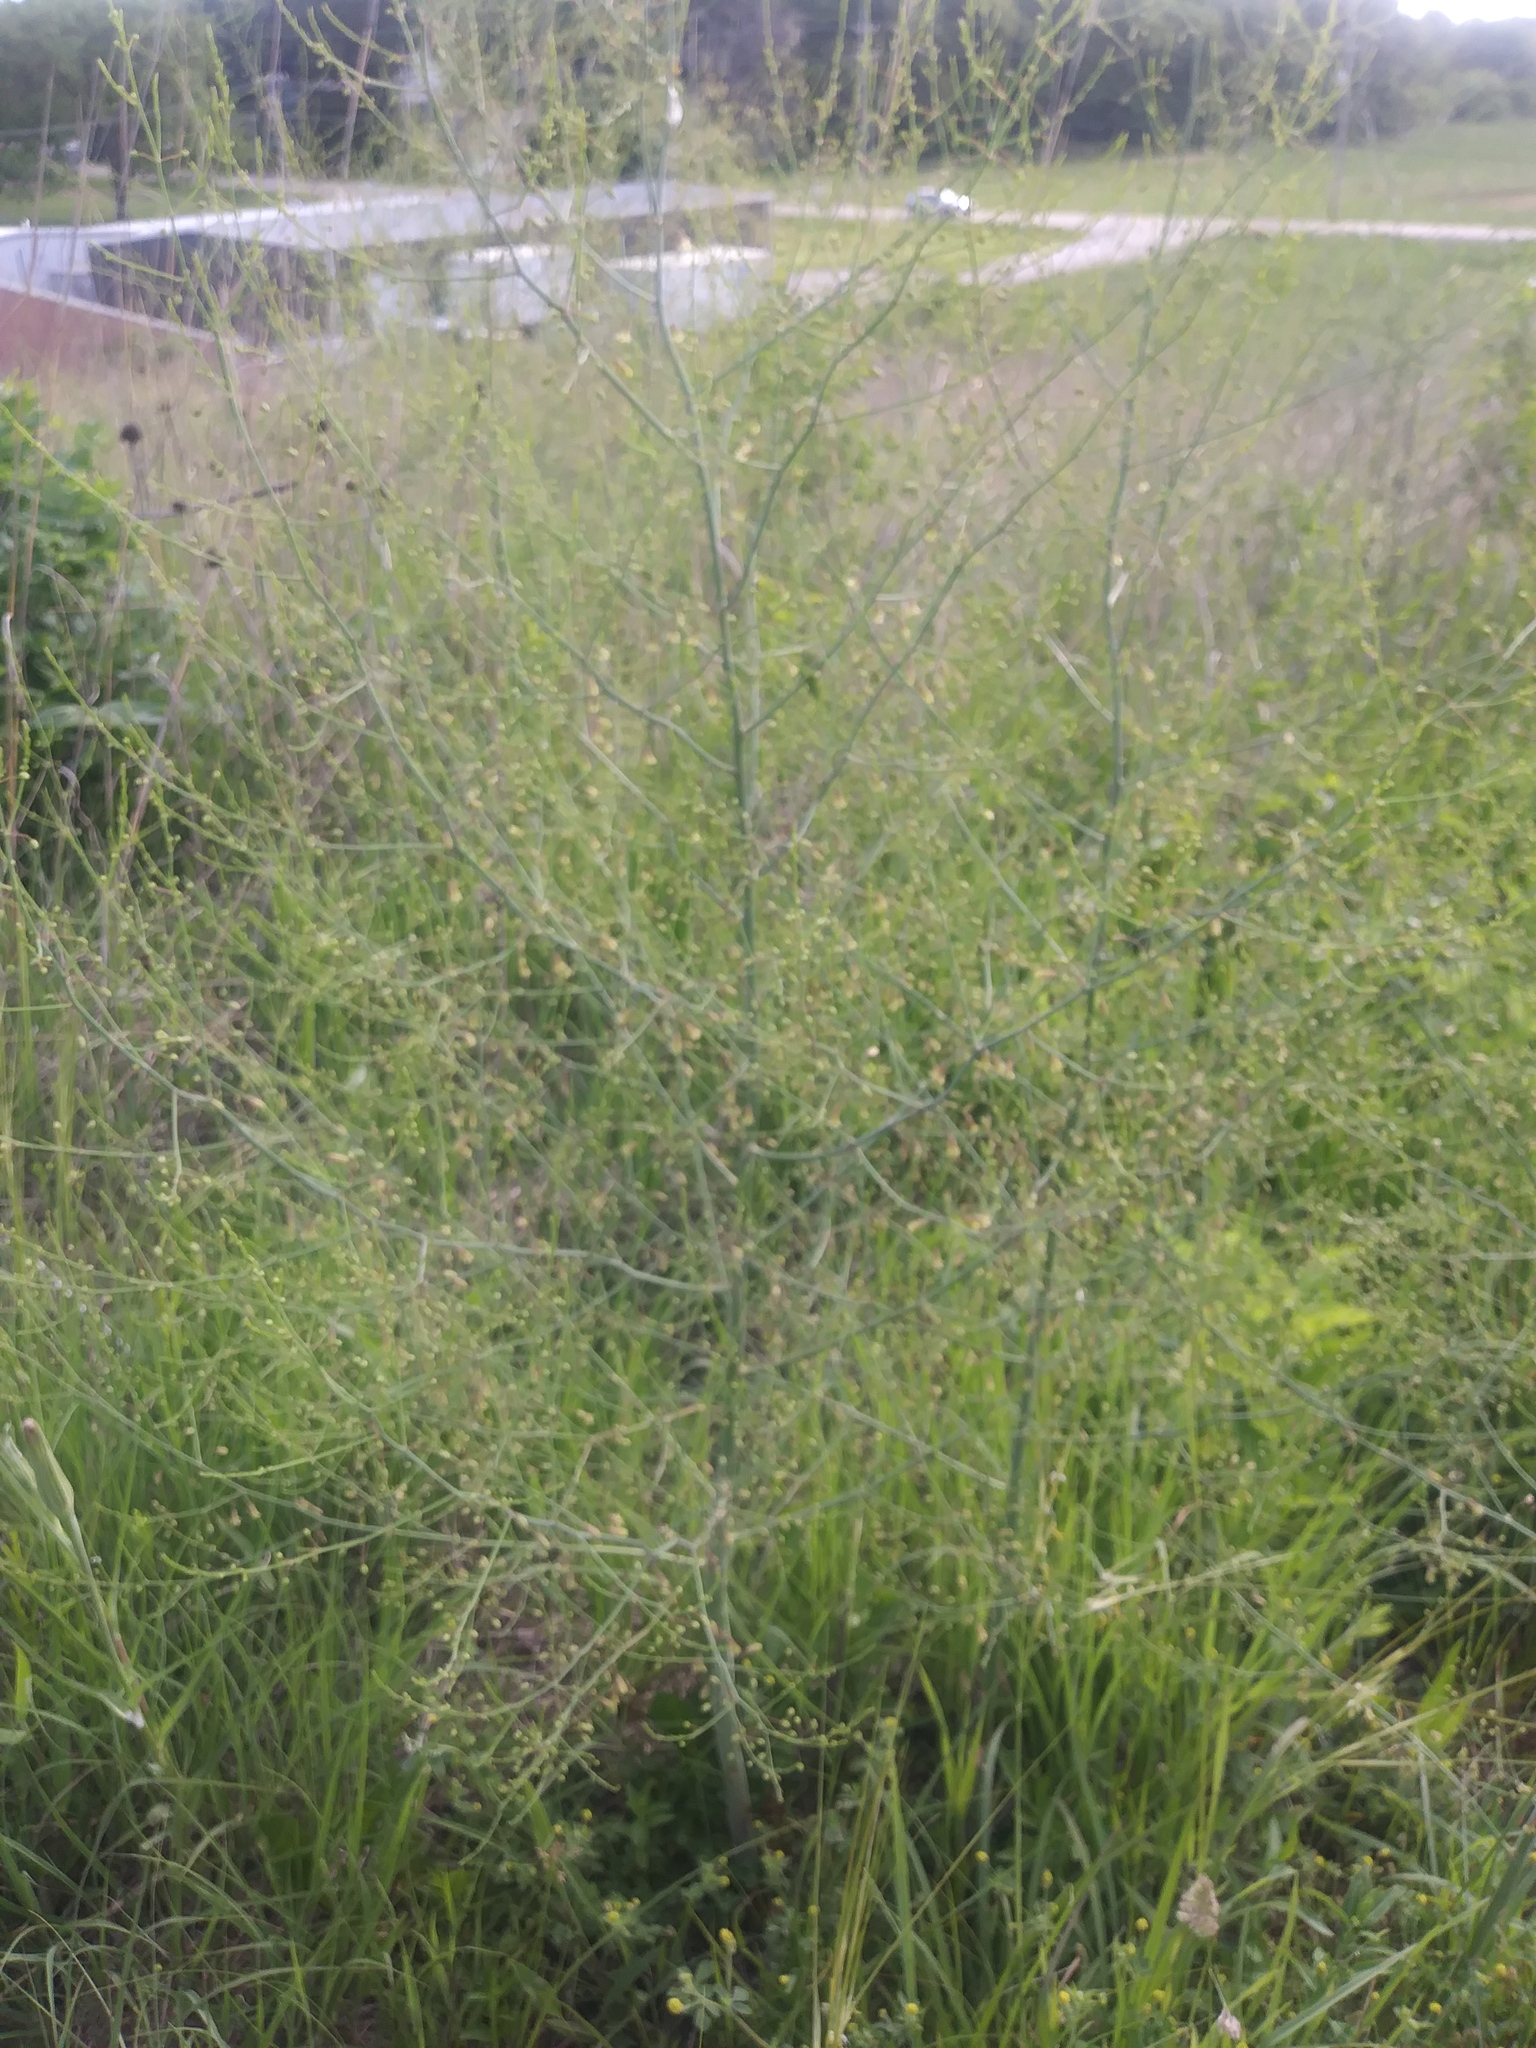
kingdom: Plantae
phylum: Tracheophyta
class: Liliopsida
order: Asparagales
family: Asparagaceae
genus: Asparagus
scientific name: Asparagus officinalis
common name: Garden asparagus
